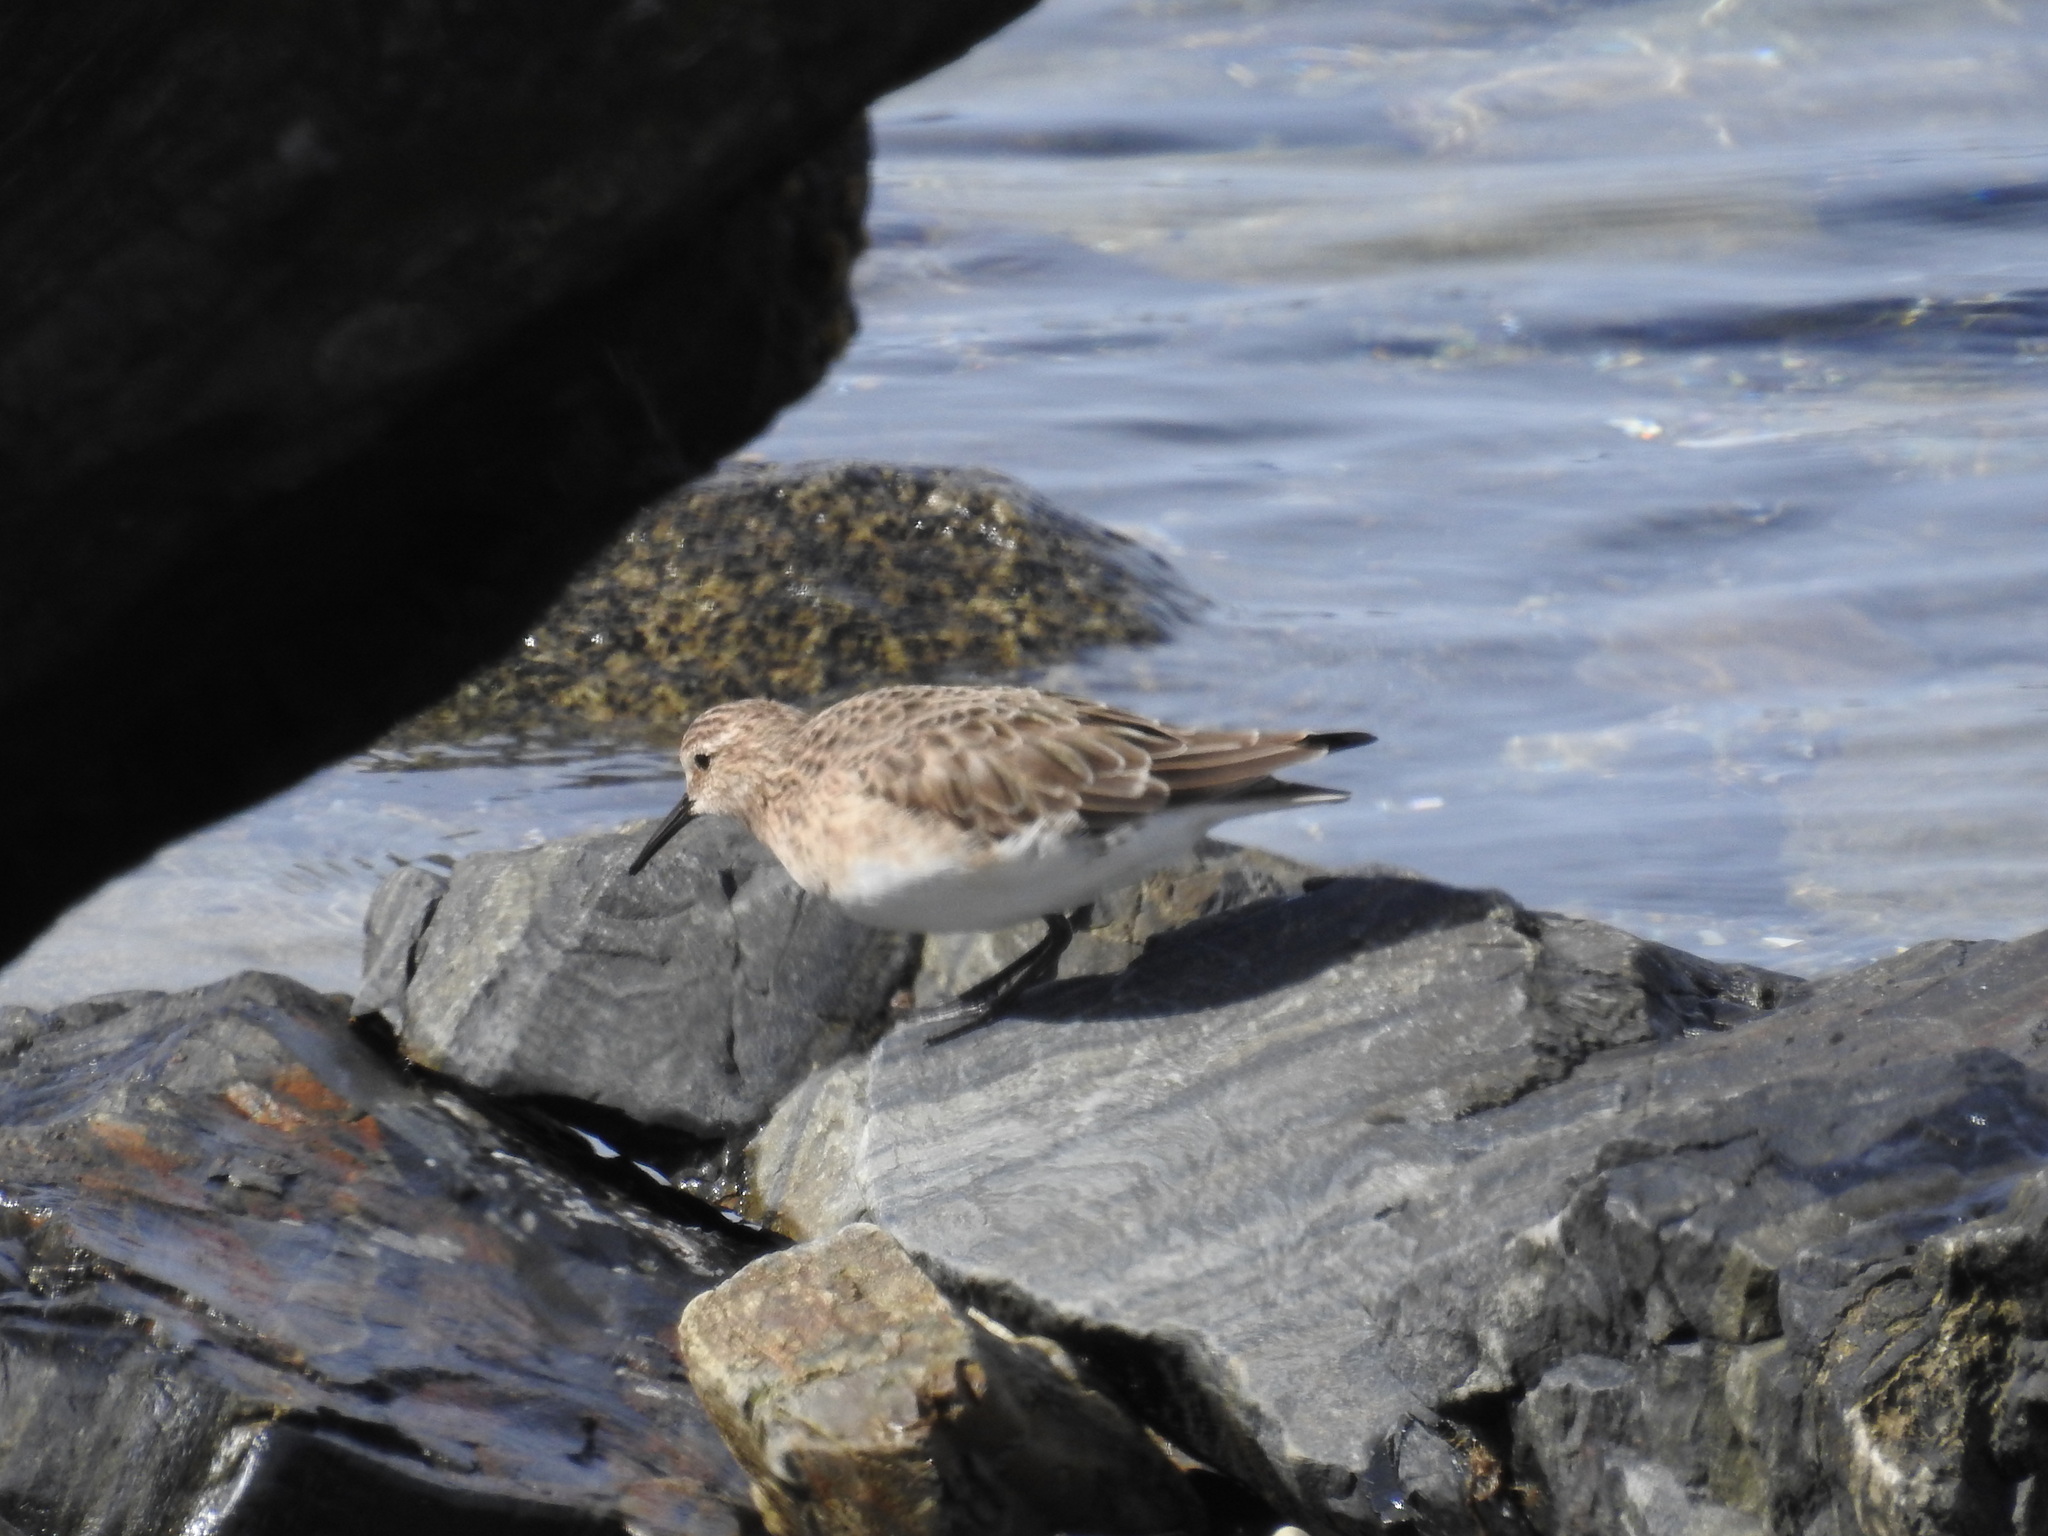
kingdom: Animalia
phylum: Chordata
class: Aves
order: Charadriiformes
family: Scolopacidae
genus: Calidris
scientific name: Calidris bairdii
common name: Baird's sandpiper
